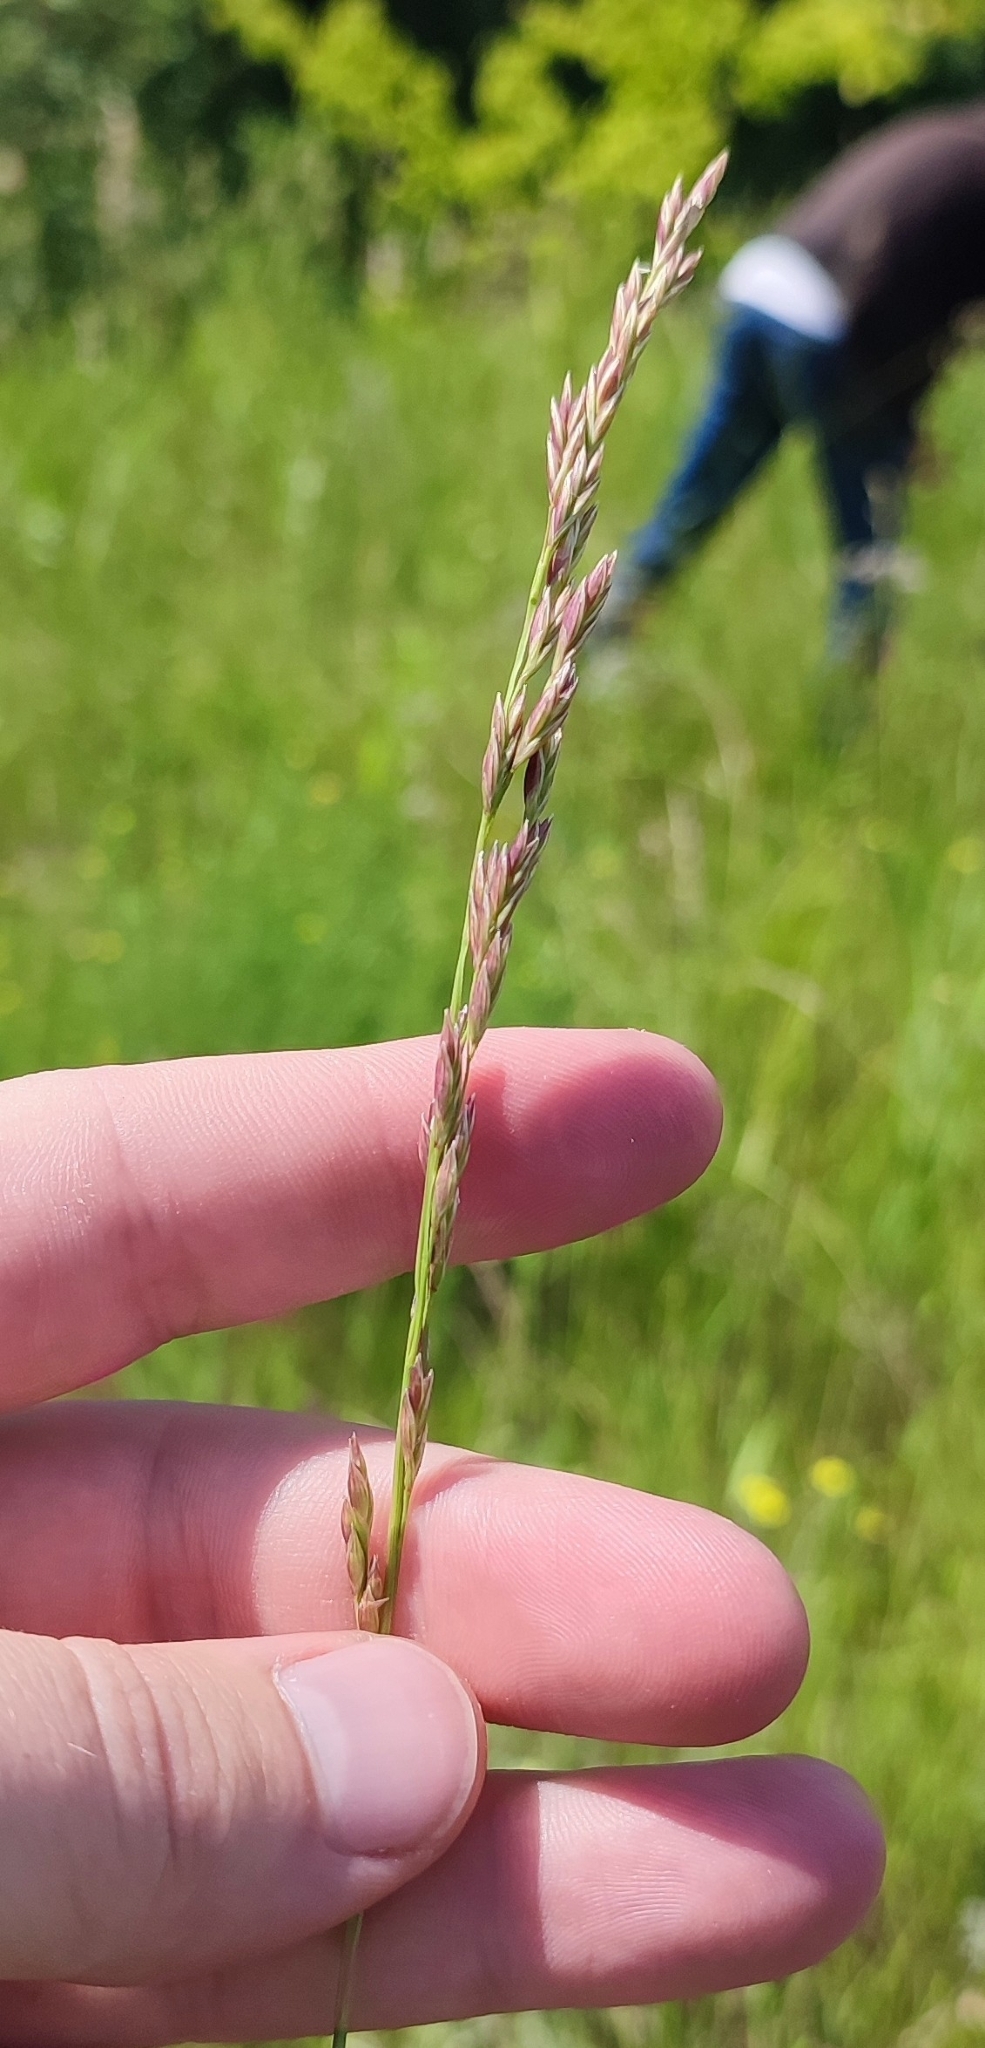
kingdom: Plantae
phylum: Tracheophyta
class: Liliopsida
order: Poales
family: Poaceae
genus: Lolium
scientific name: Lolium pratense
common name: Dover grass
